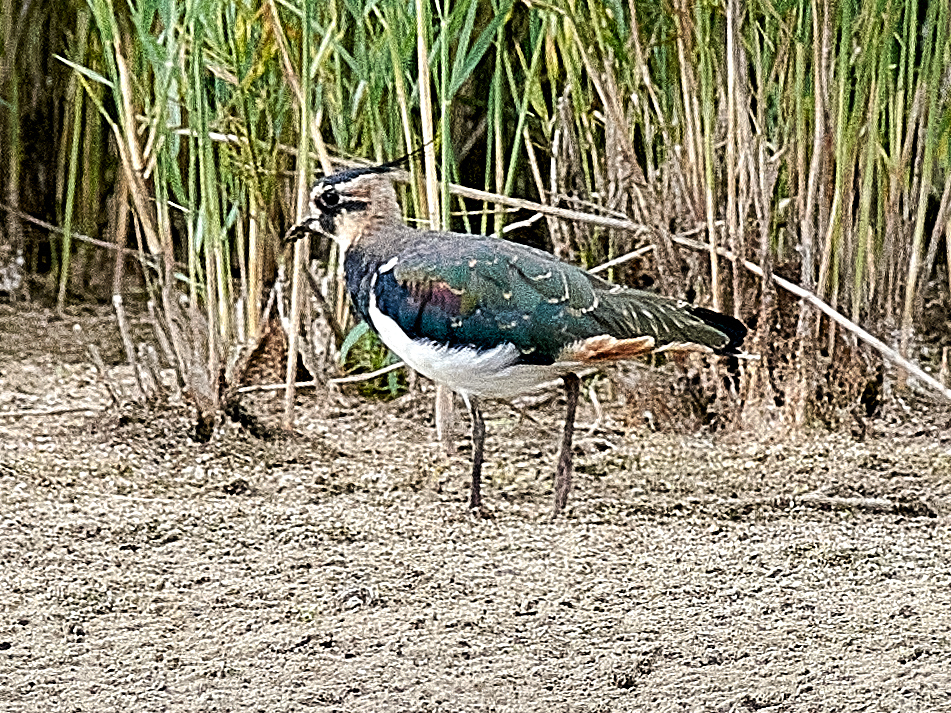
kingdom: Animalia
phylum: Chordata
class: Aves
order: Charadriiformes
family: Charadriidae
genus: Vanellus
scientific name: Vanellus vanellus
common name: Northern lapwing
